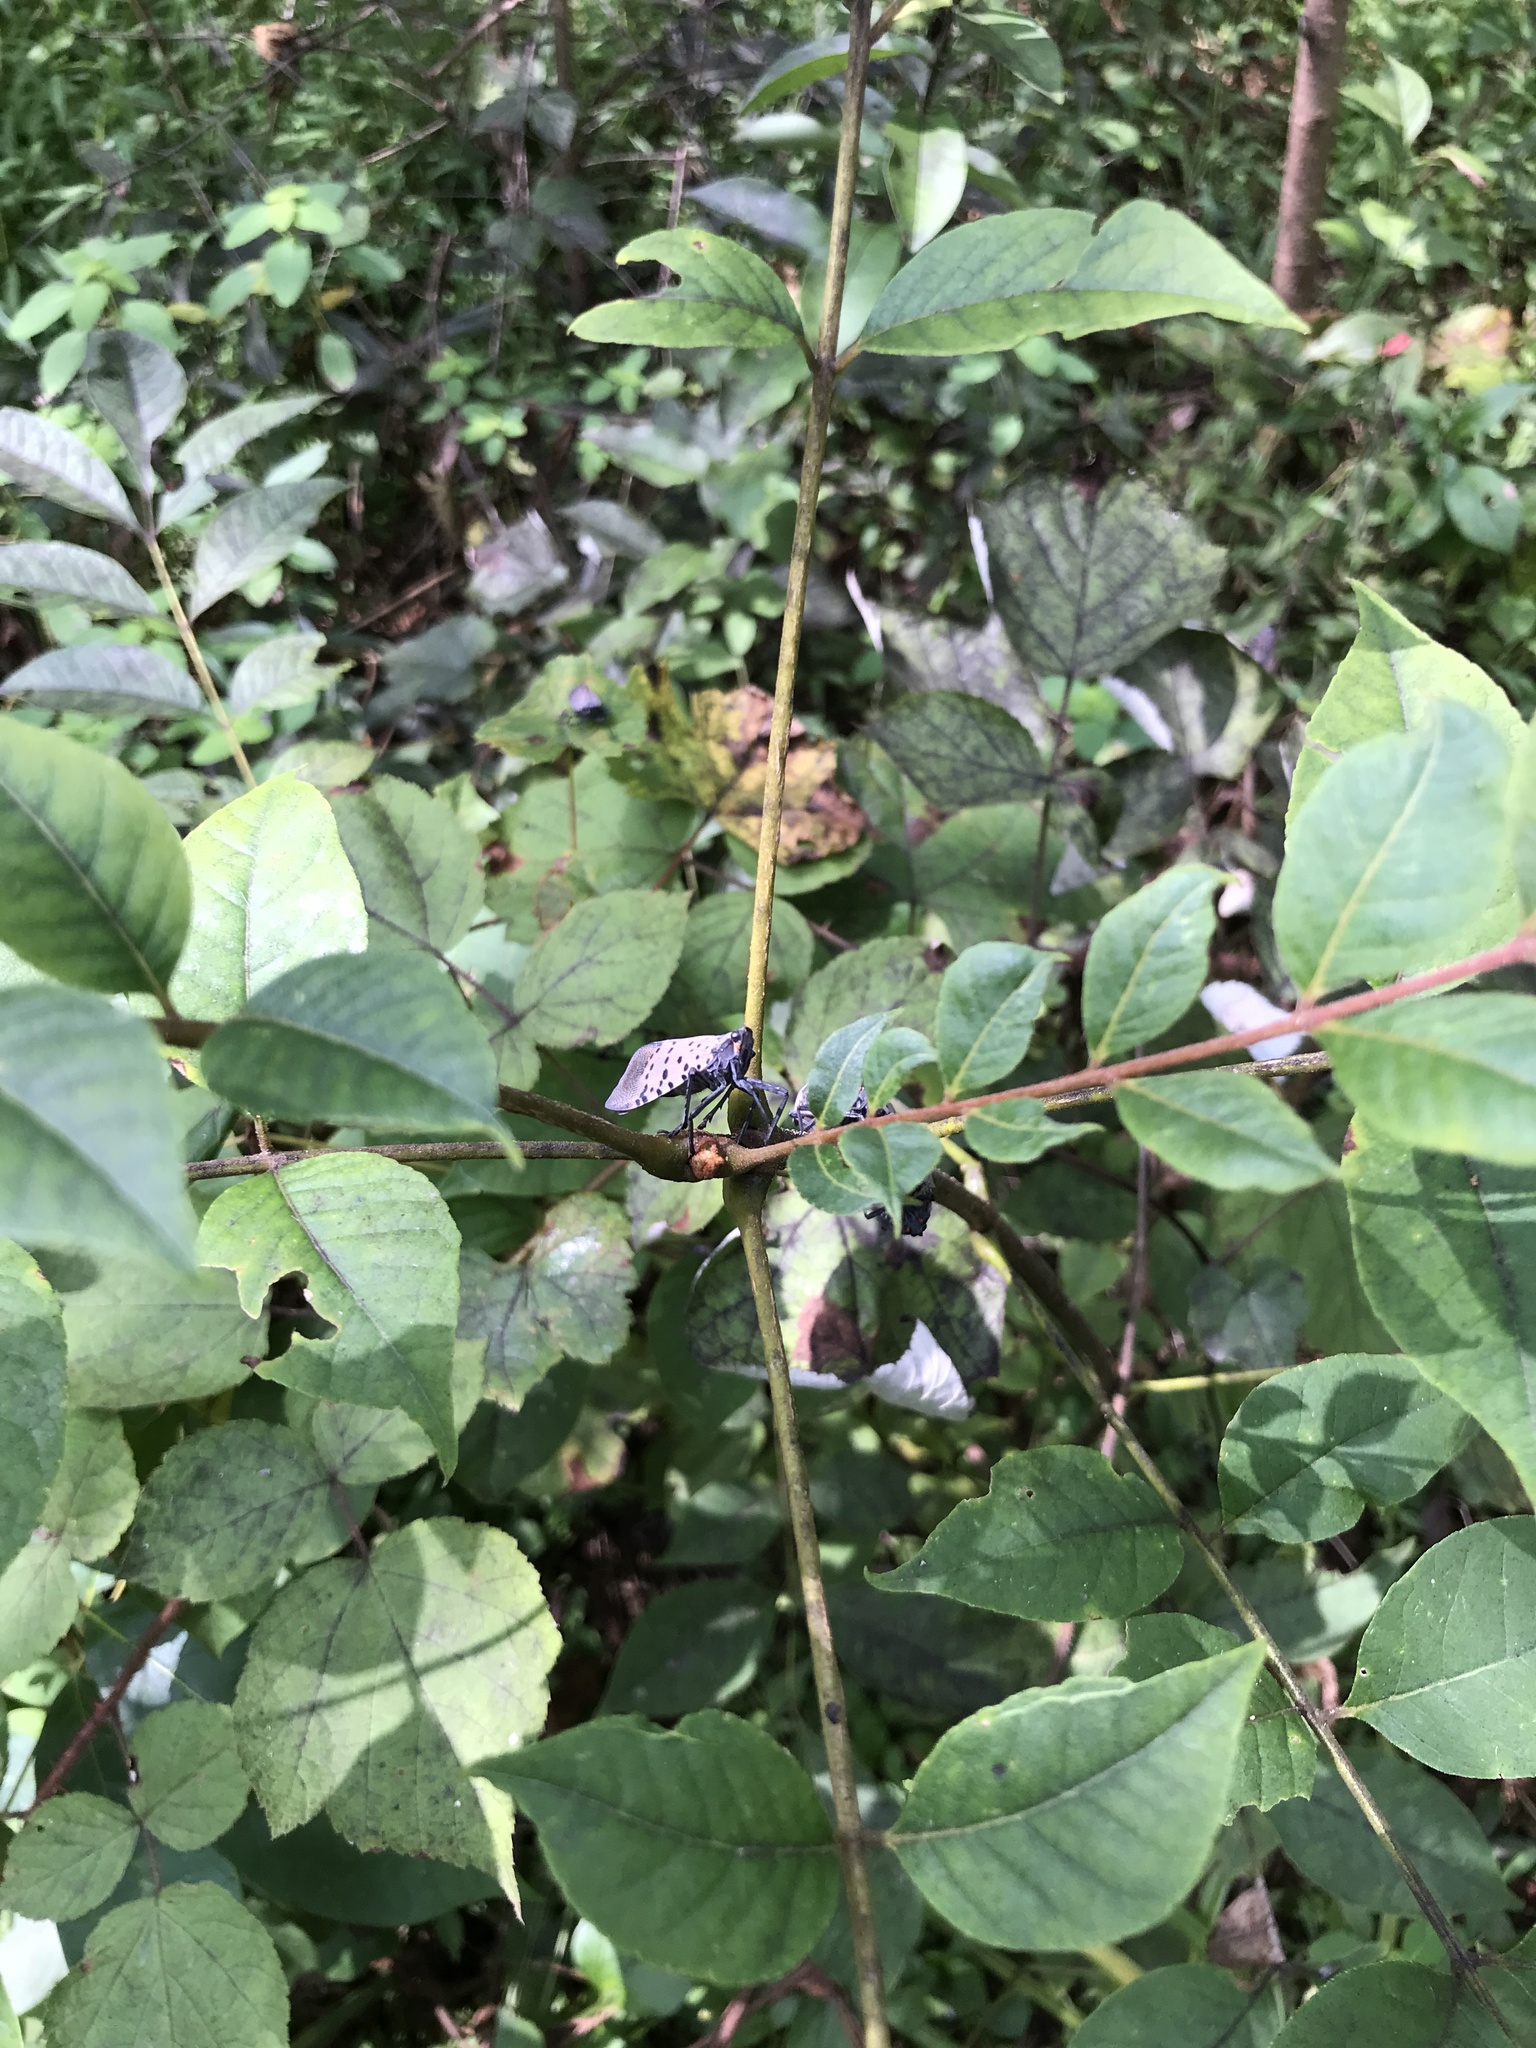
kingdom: Plantae
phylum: Tracheophyta
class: Magnoliopsida
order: Sapindales
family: Rutaceae
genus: Phellodendron
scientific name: Phellodendron amurense
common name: Amur corktree
